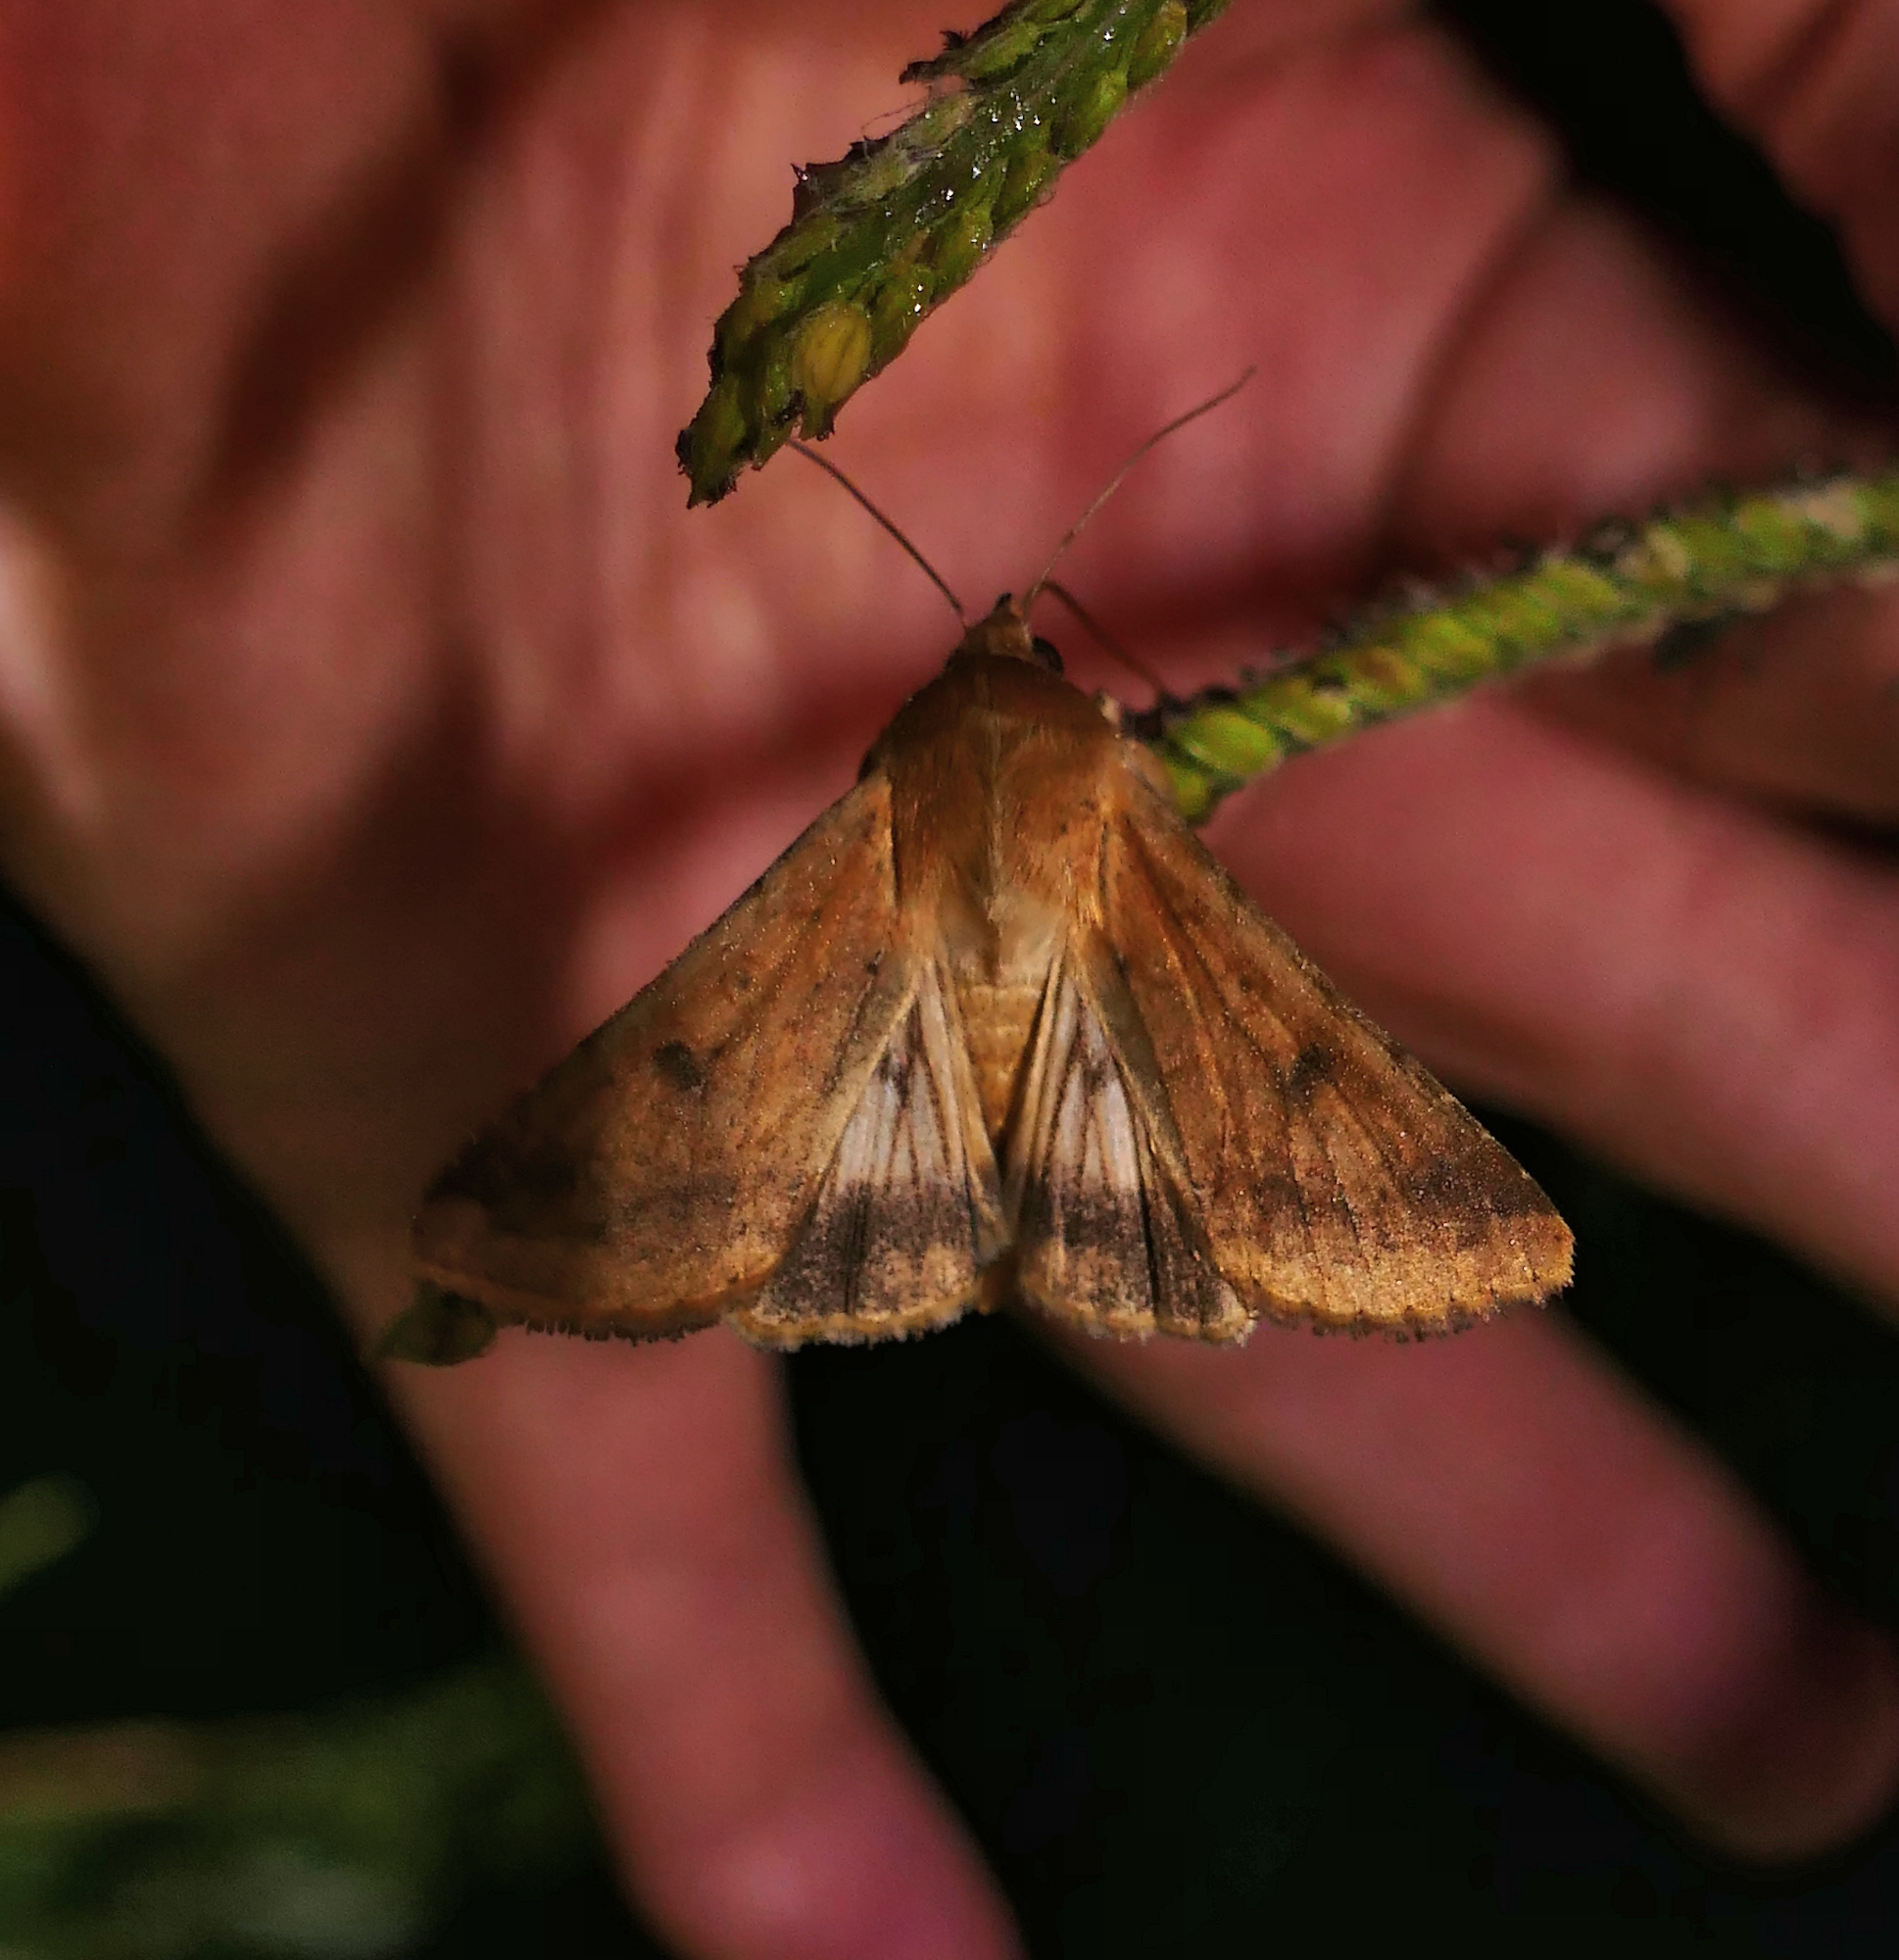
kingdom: Animalia
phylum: Arthropoda
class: Insecta
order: Lepidoptera
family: Noctuidae
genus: Helicoverpa
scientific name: Helicoverpa zea
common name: Bollworm
